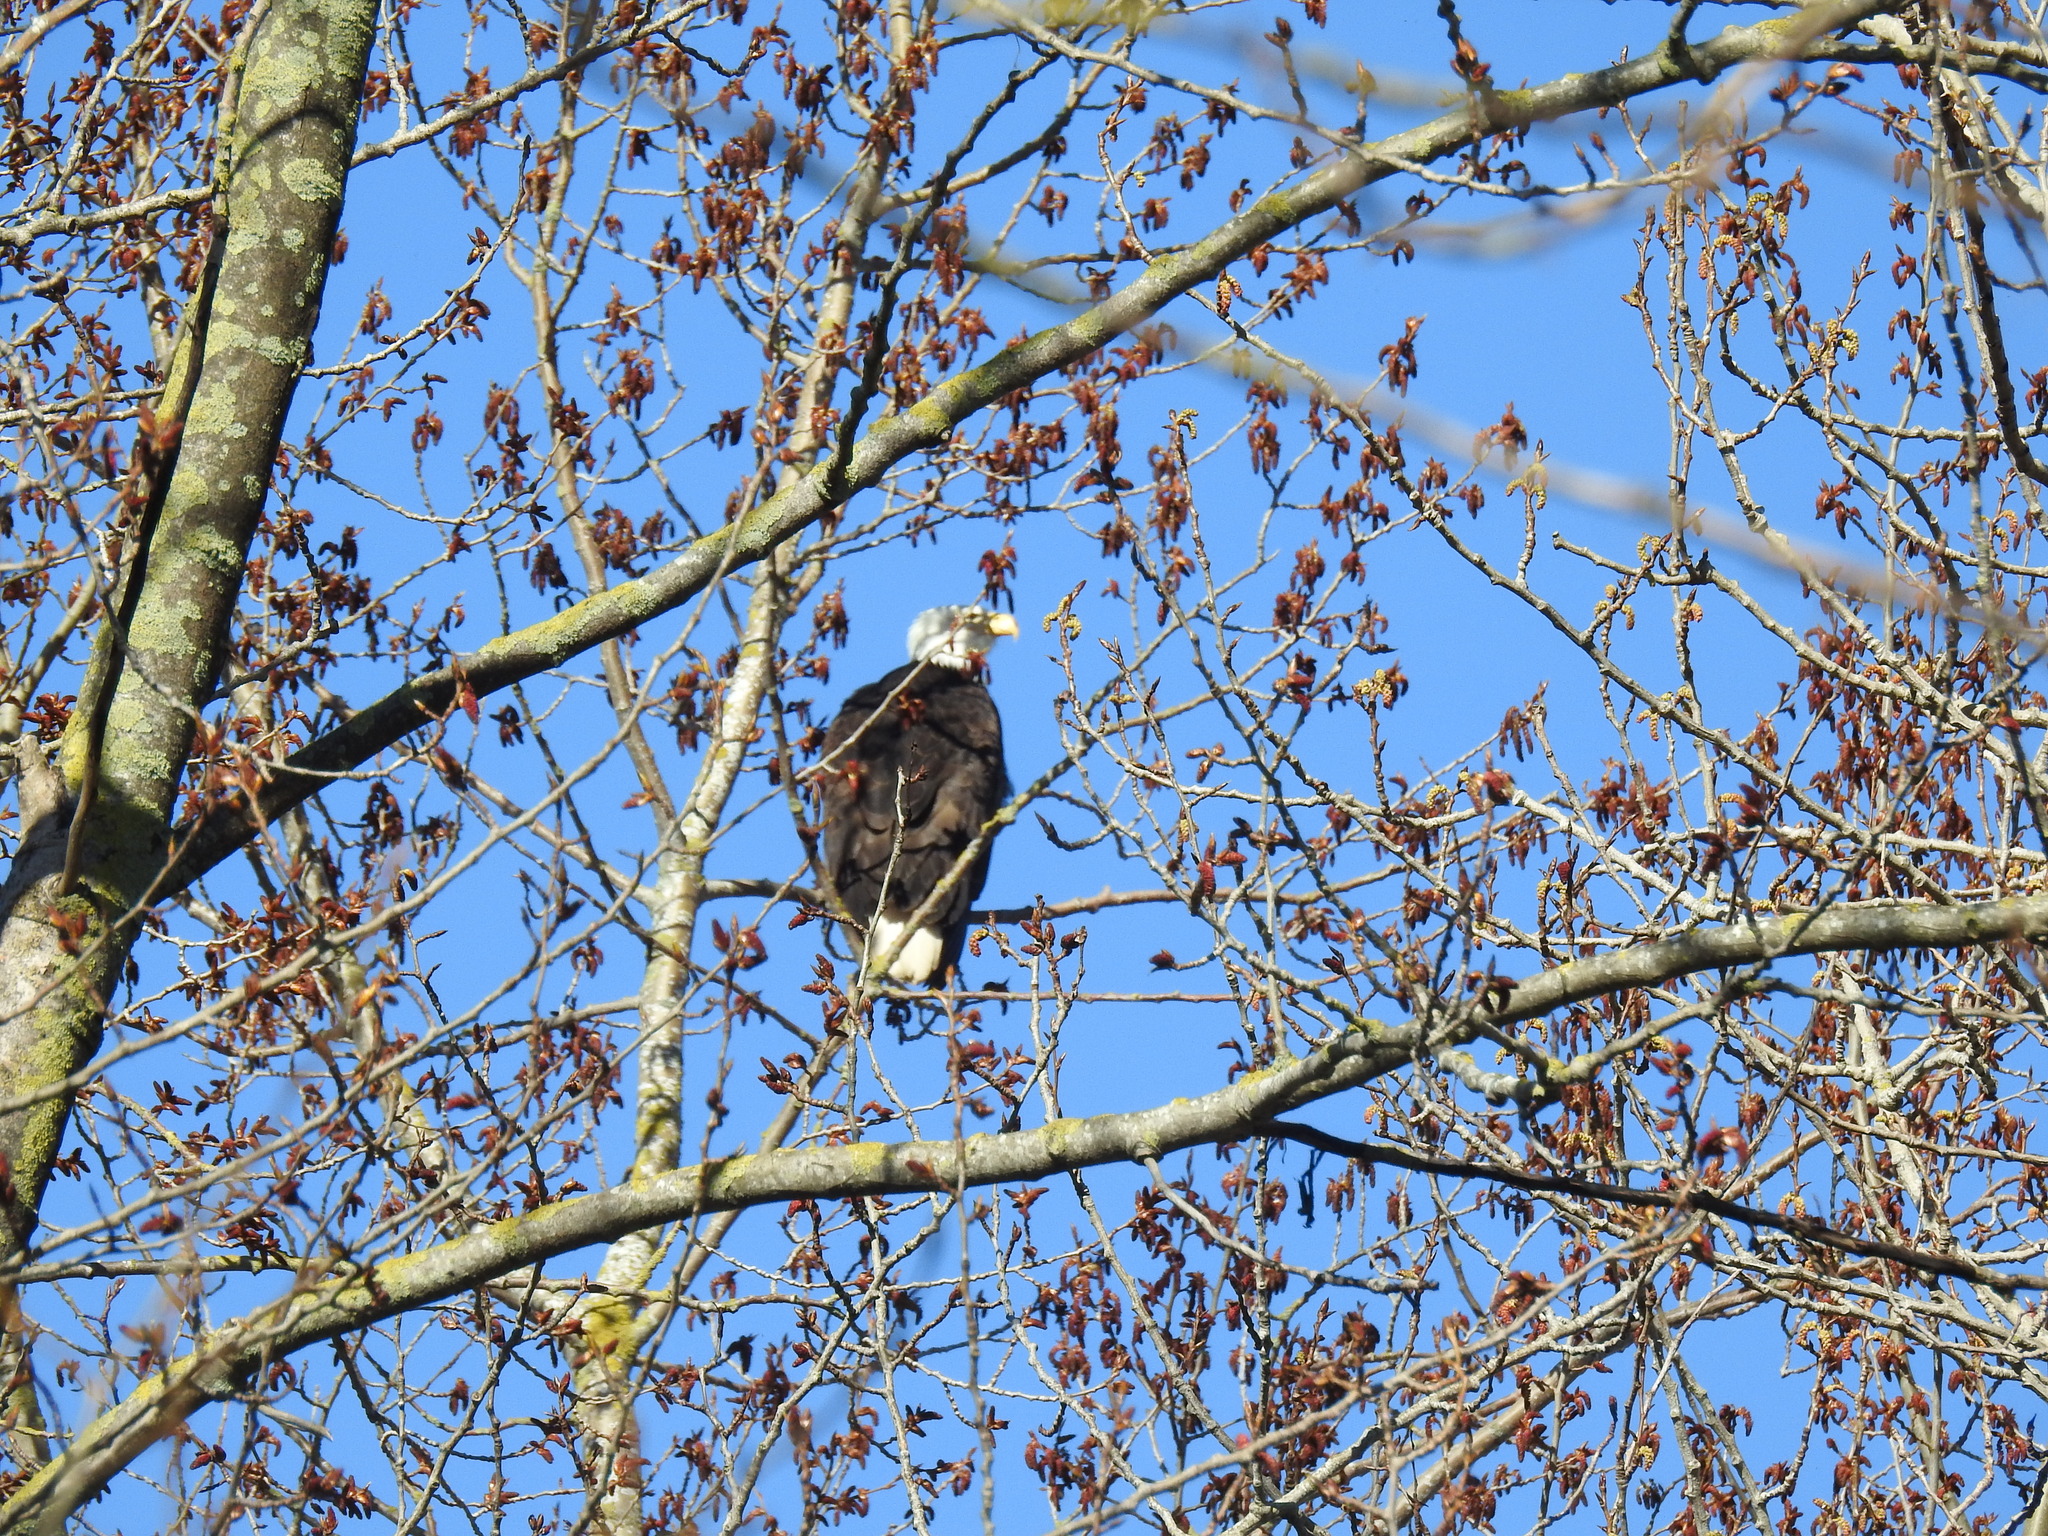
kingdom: Animalia
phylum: Chordata
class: Aves
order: Accipitriformes
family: Accipitridae
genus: Haliaeetus
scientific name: Haliaeetus leucocephalus
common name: Bald eagle
